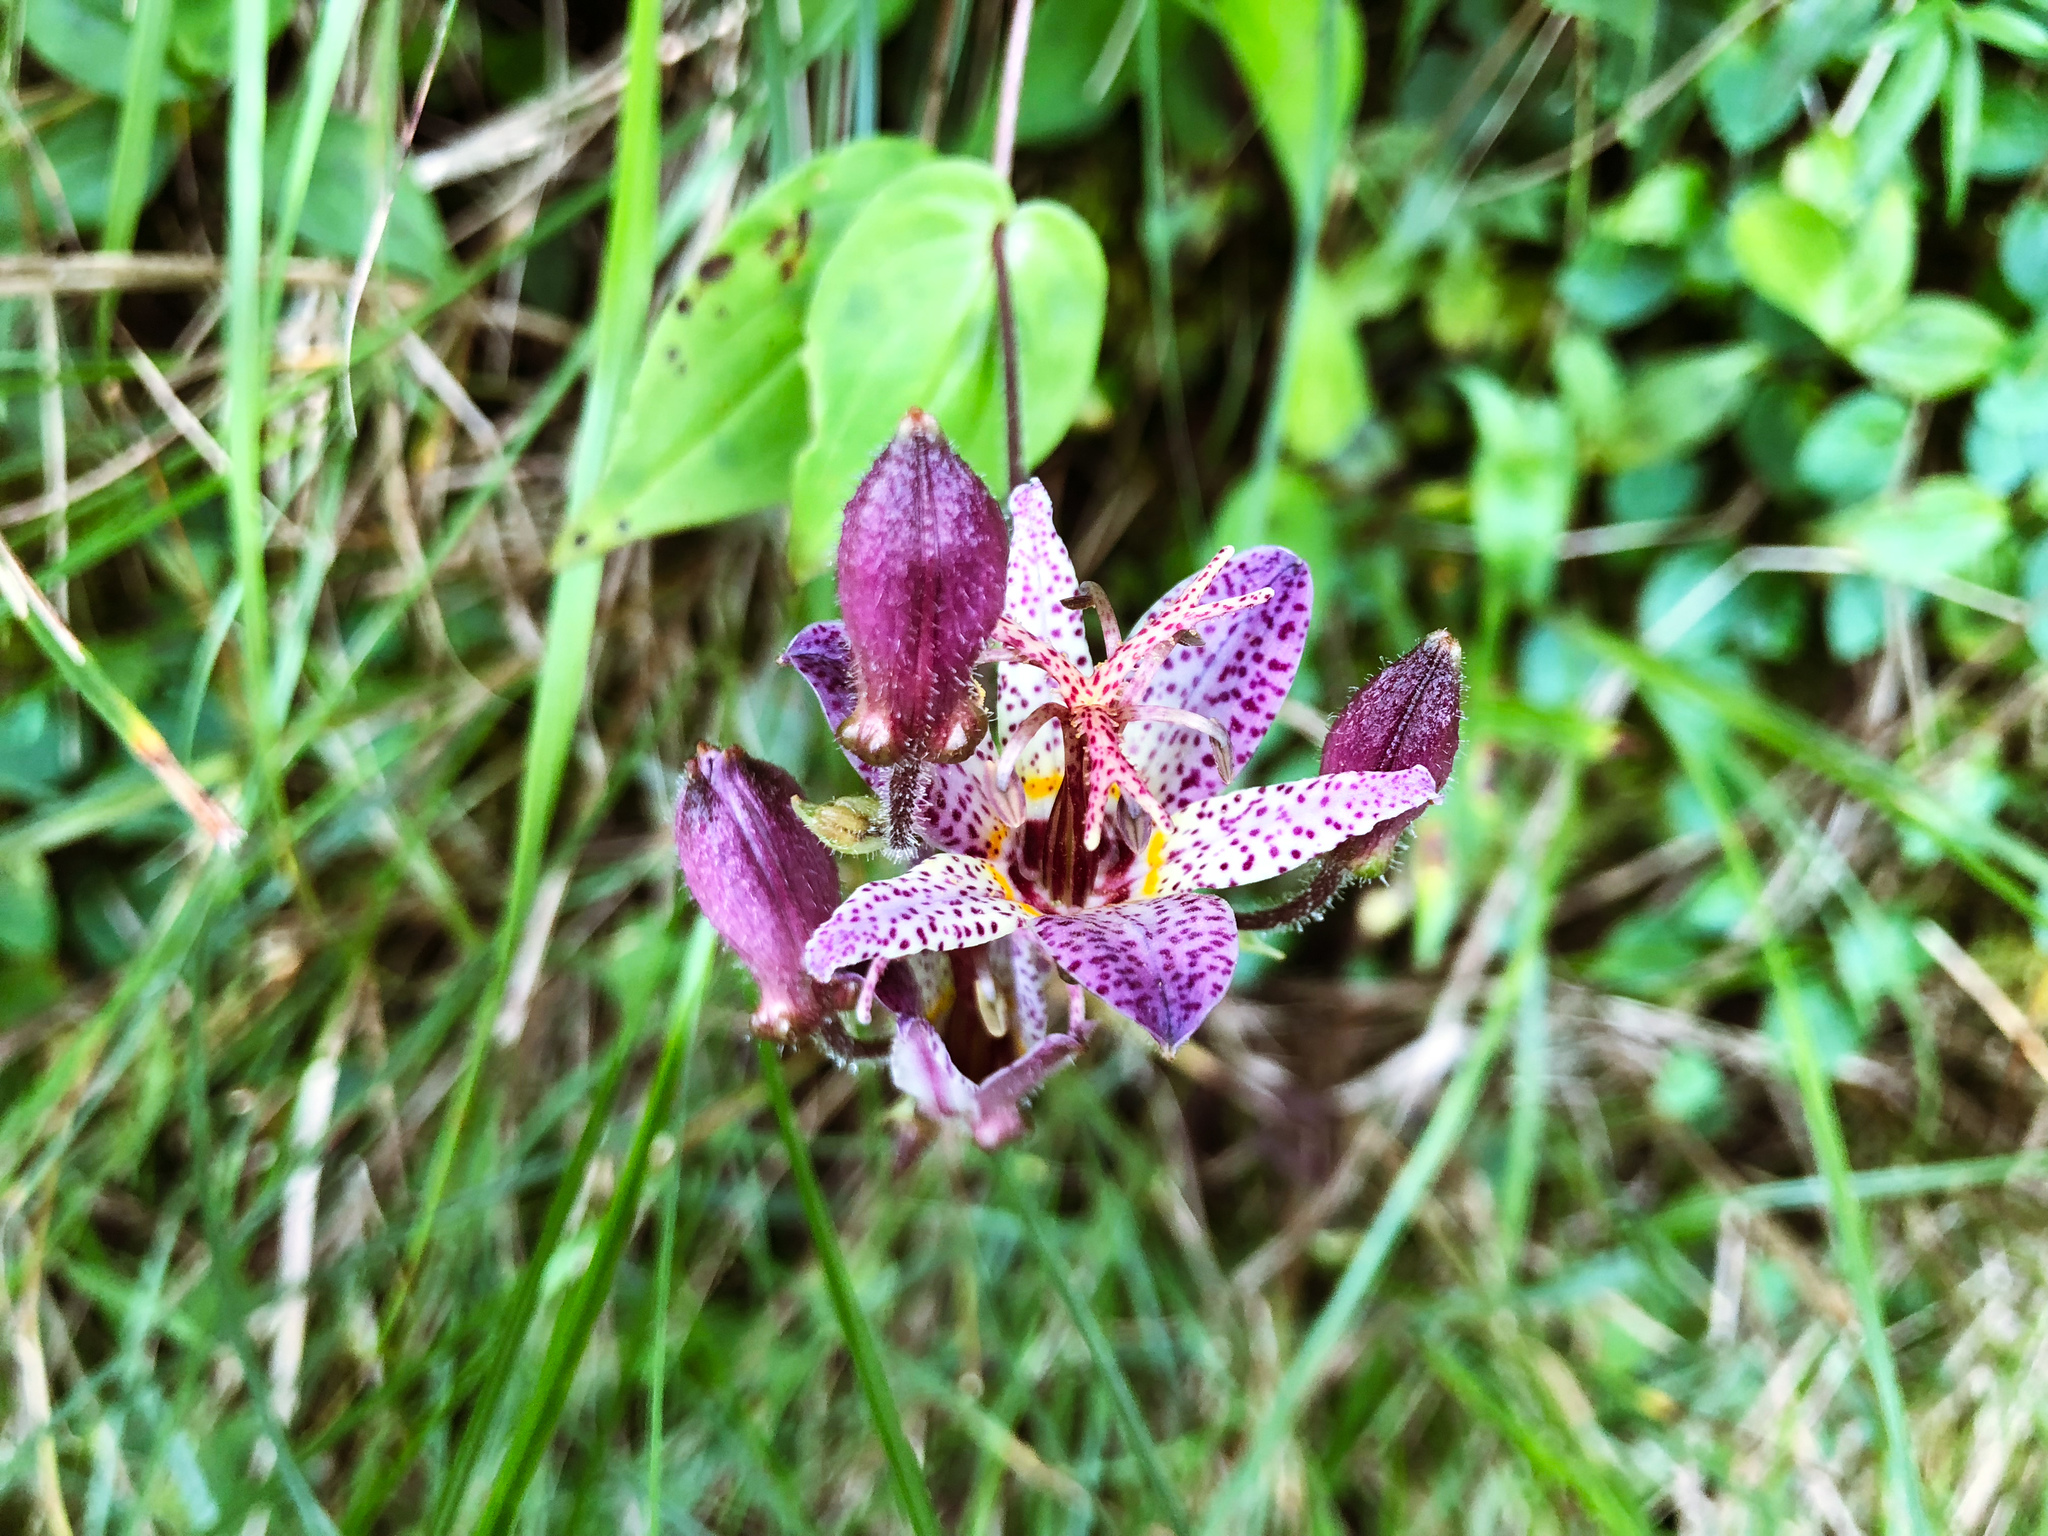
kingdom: Plantae
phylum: Tracheophyta
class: Liliopsida
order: Liliales
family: Liliaceae
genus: Tricyrtis
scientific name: Tricyrtis formosana
